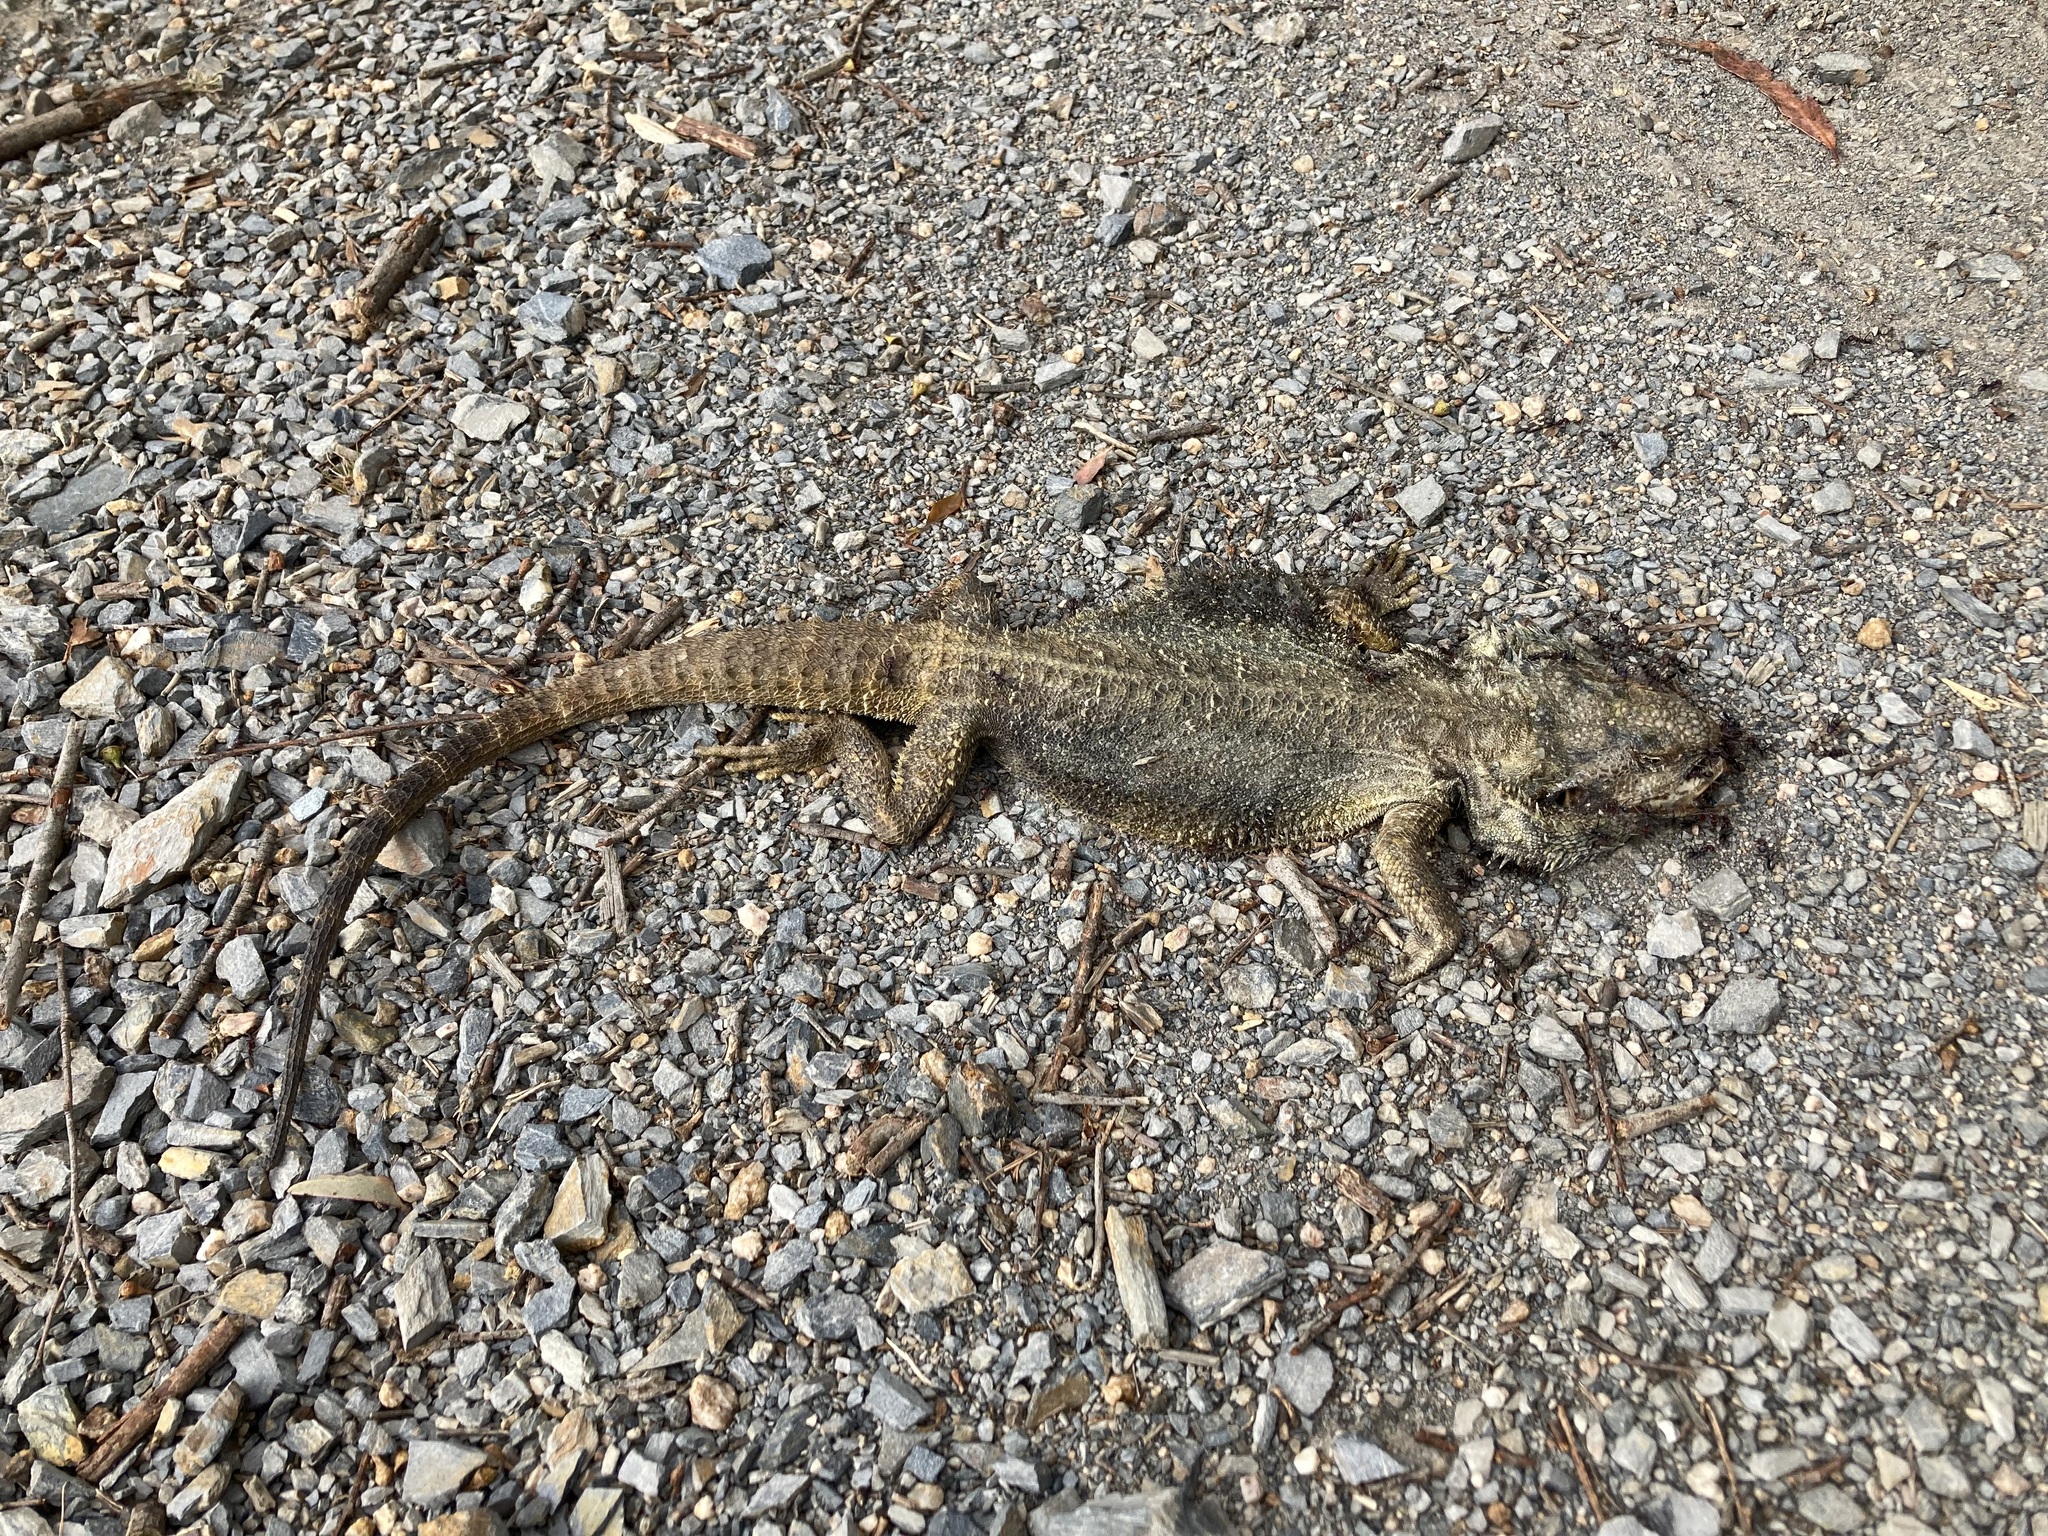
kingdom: Animalia
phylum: Chordata
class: Squamata
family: Agamidae
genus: Pogona
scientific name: Pogona barbata
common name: Bearded dragon
